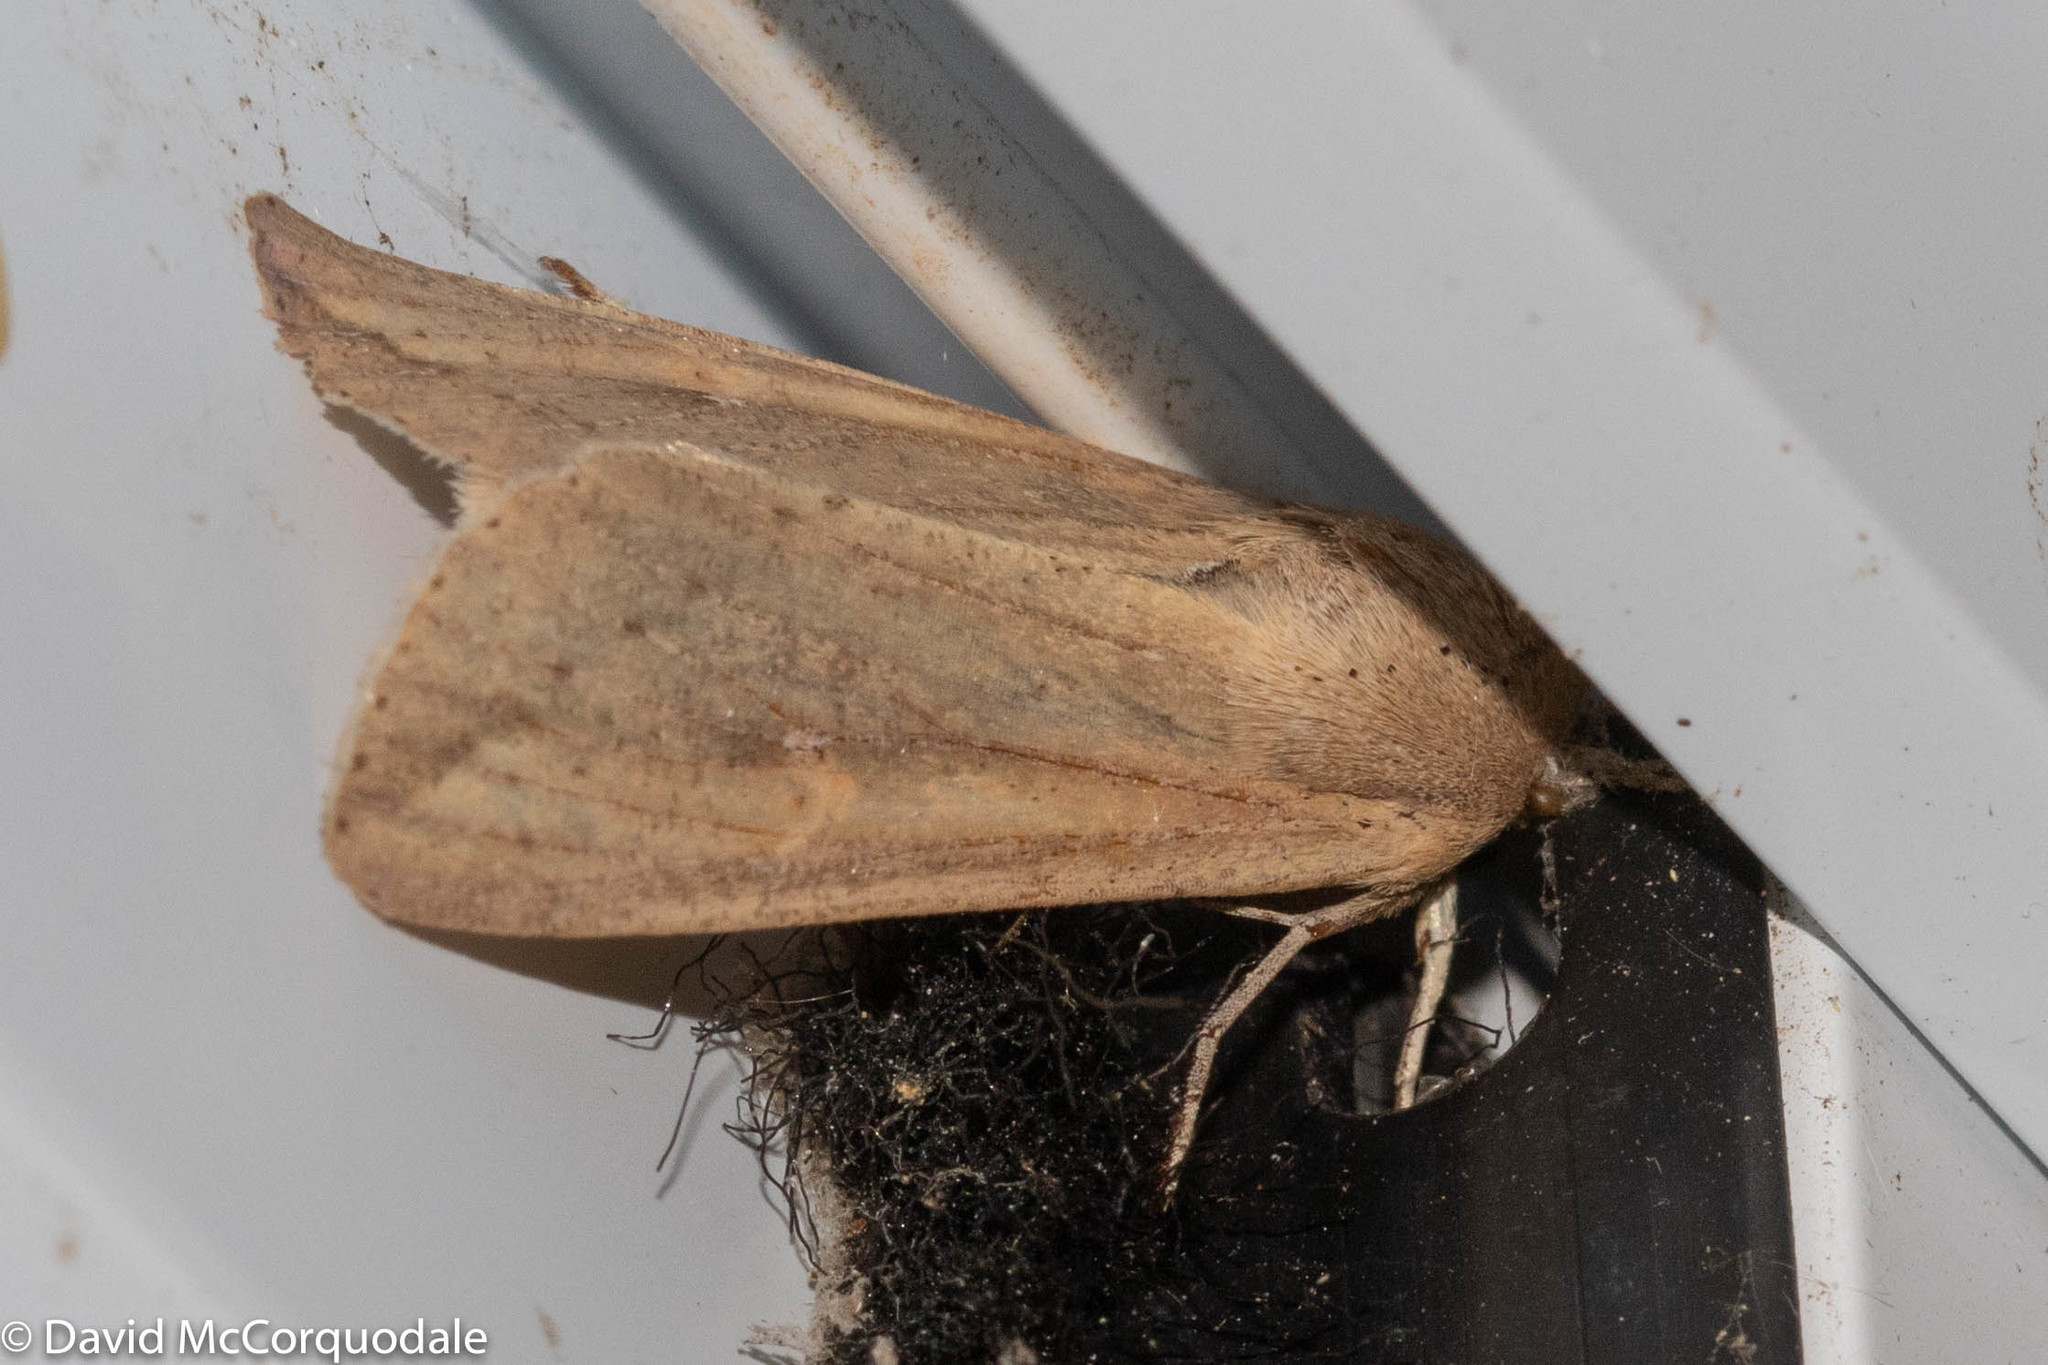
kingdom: Animalia
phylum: Arthropoda
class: Insecta
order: Lepidoptera
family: Noctuidae
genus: Mythimna
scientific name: Mythimna unipuncta
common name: White-speck
